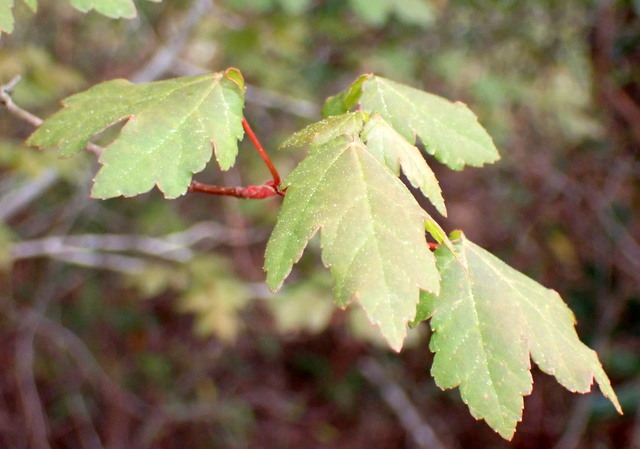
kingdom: Plantae
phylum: Tracheophyta
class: Magnoliopsida
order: Sapindales
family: Sapindaceae
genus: Acer
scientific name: Acer rubrum
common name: Red maple
